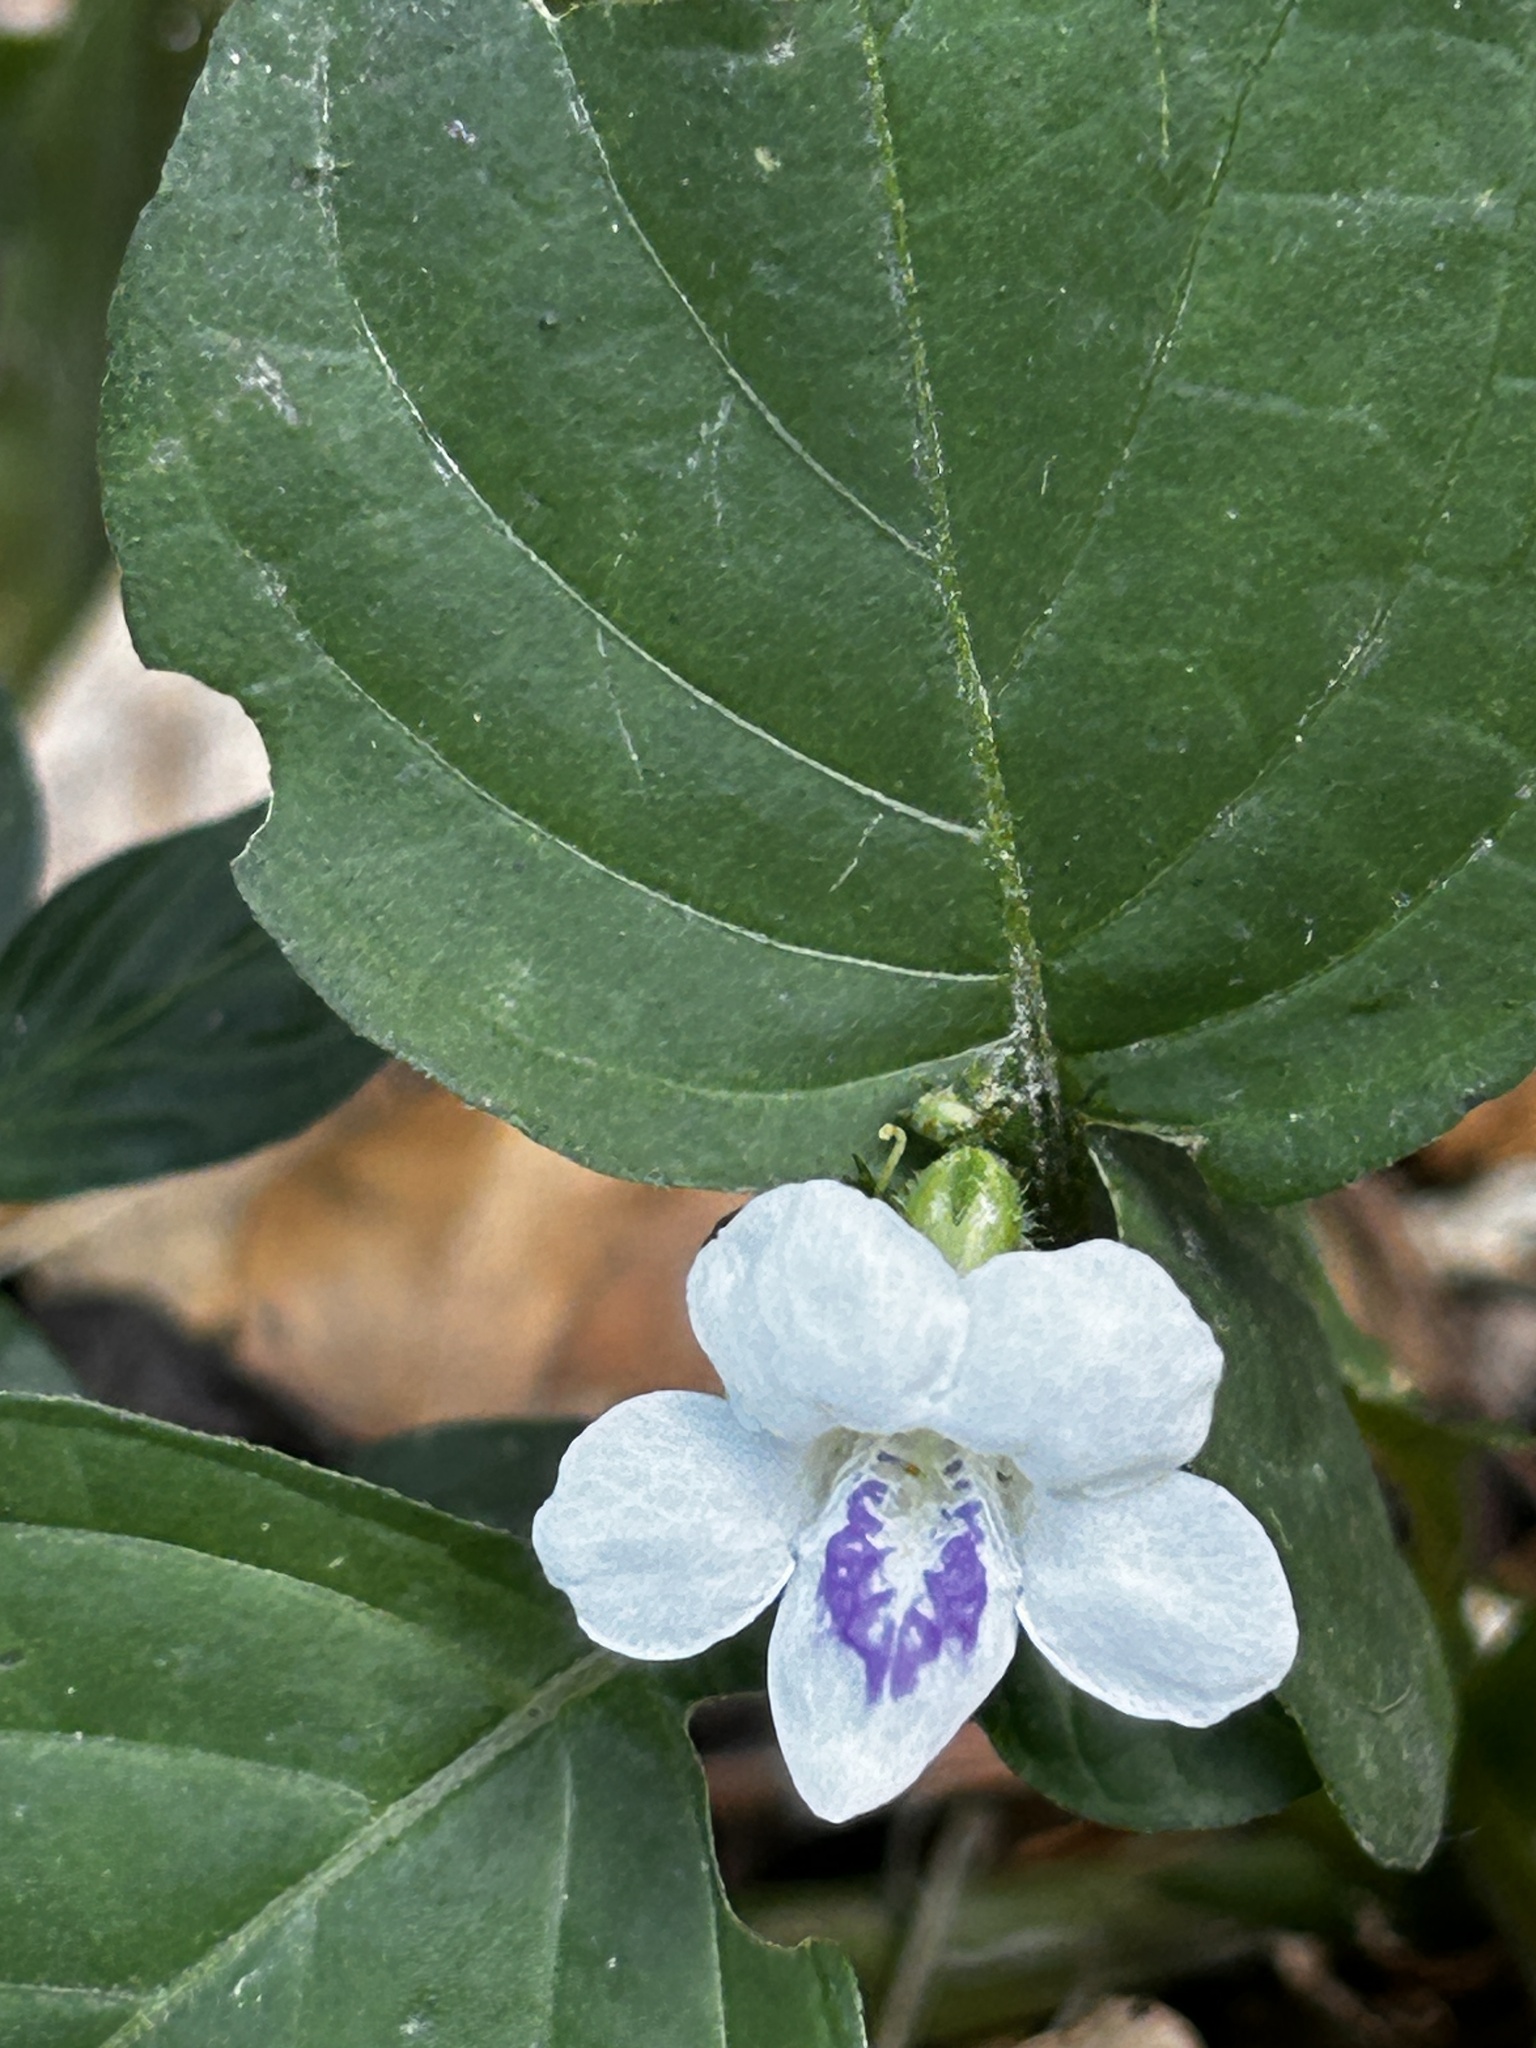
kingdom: Plantae
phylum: Tracheophyta
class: Magnoliopsida
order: Lamiales
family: Acanthaceae
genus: Asystasia
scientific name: Asystasia intrusa
